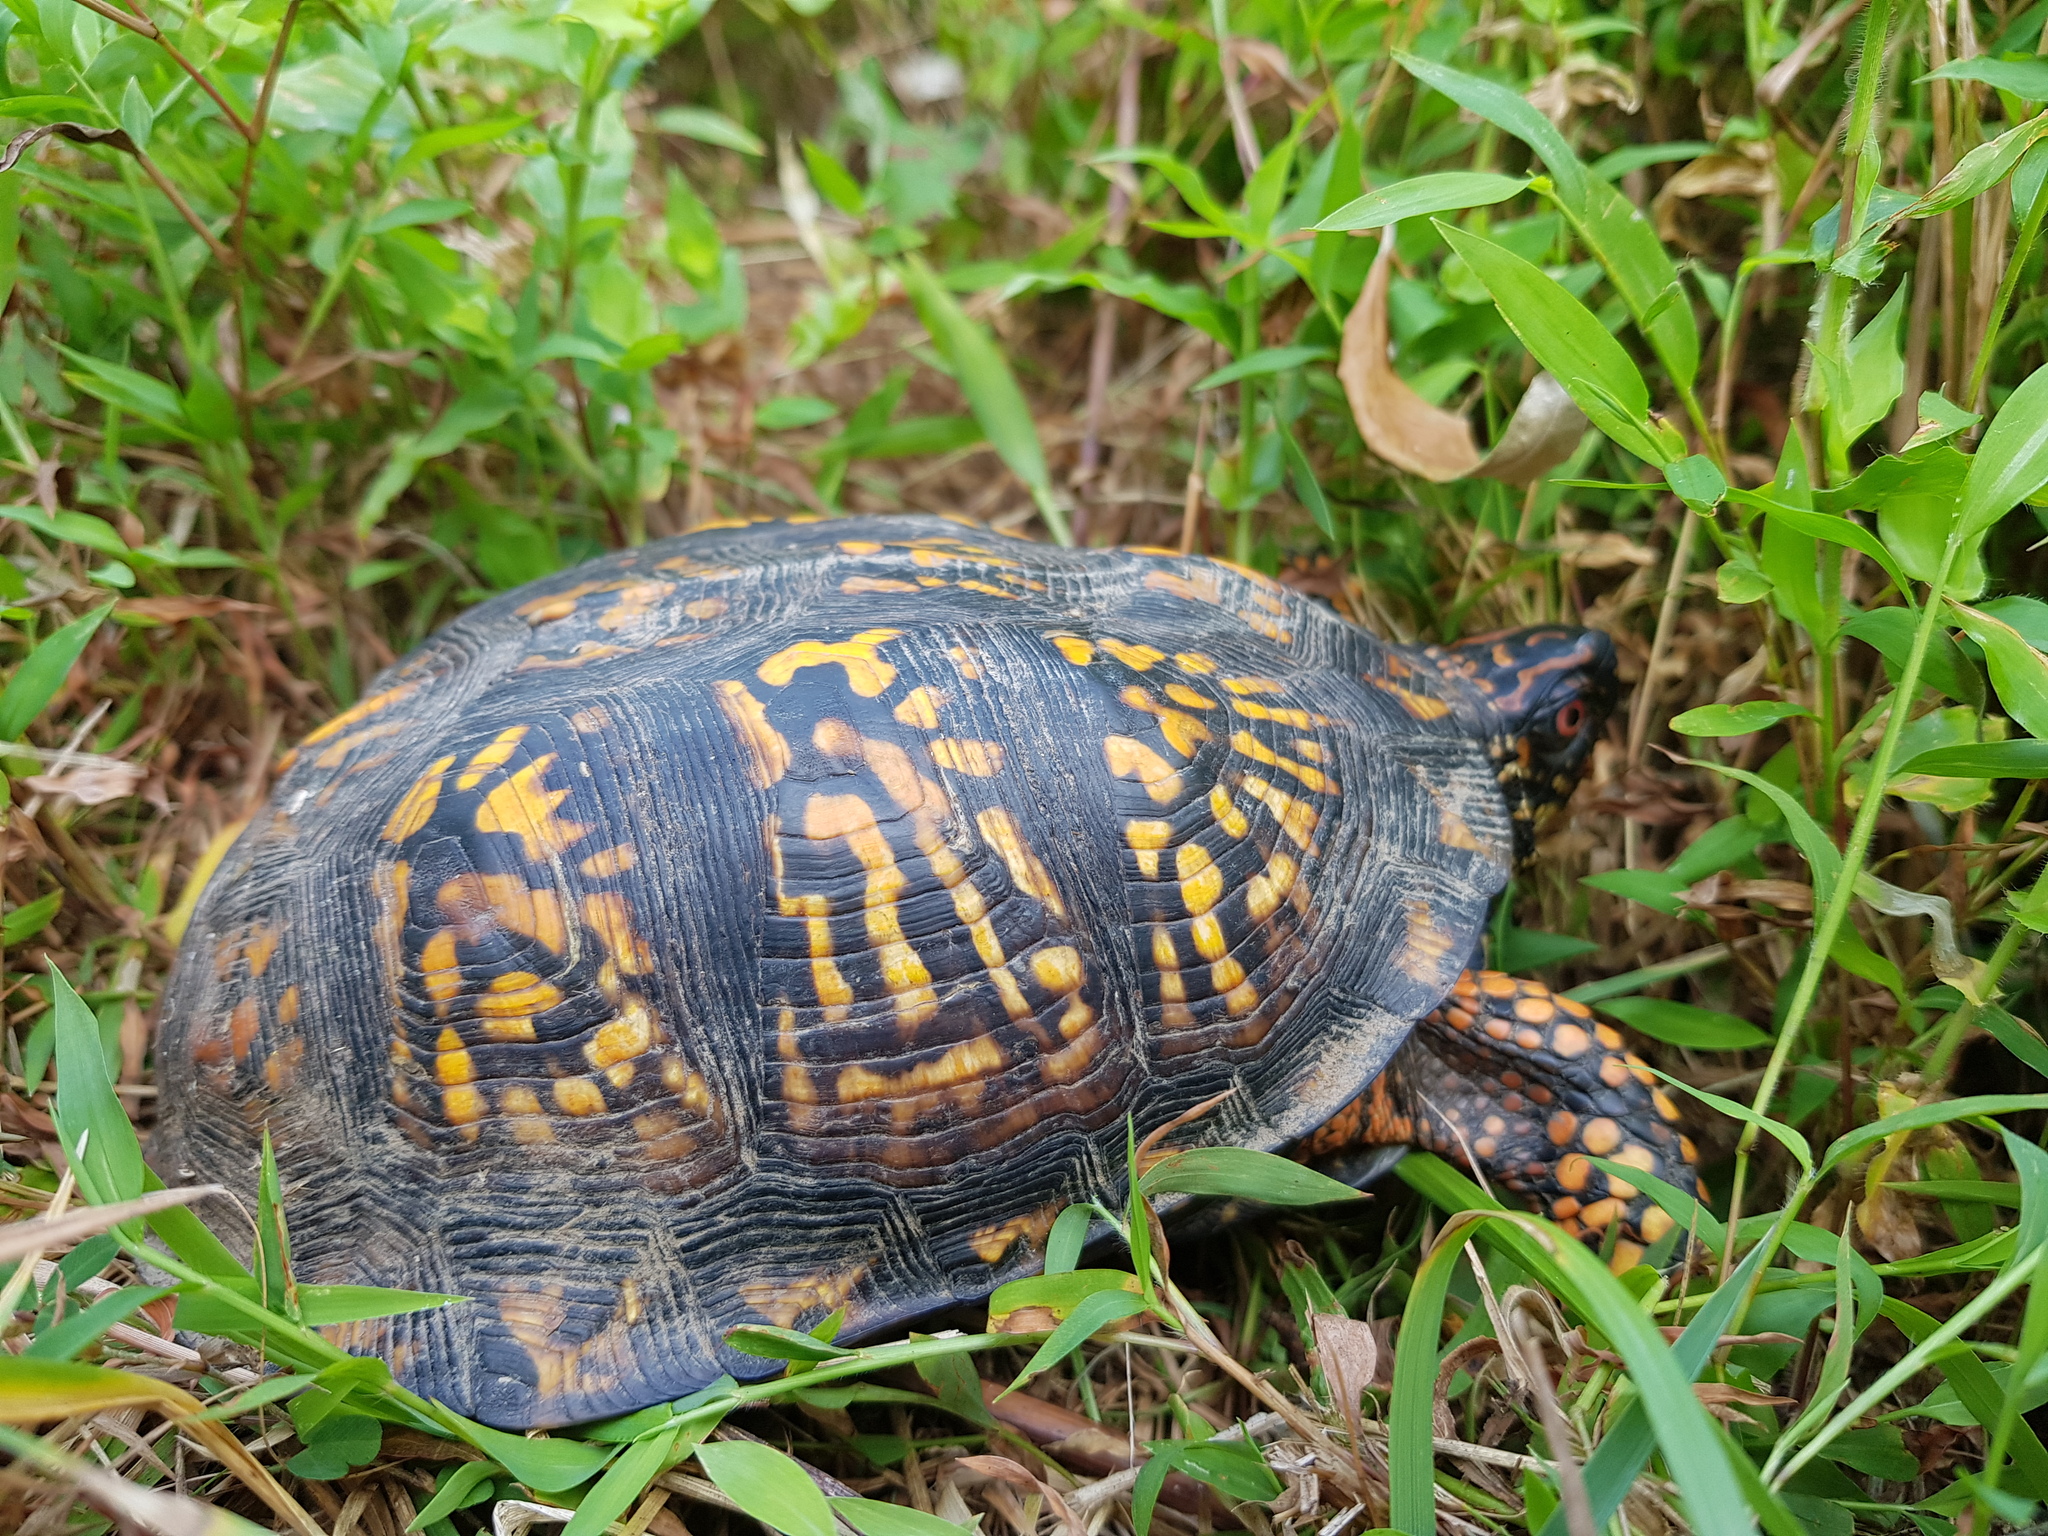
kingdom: Animalia
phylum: Chordata
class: Testudines
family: Emydidae
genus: Terrapene
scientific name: Terrapene carolina
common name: Common box turtle
